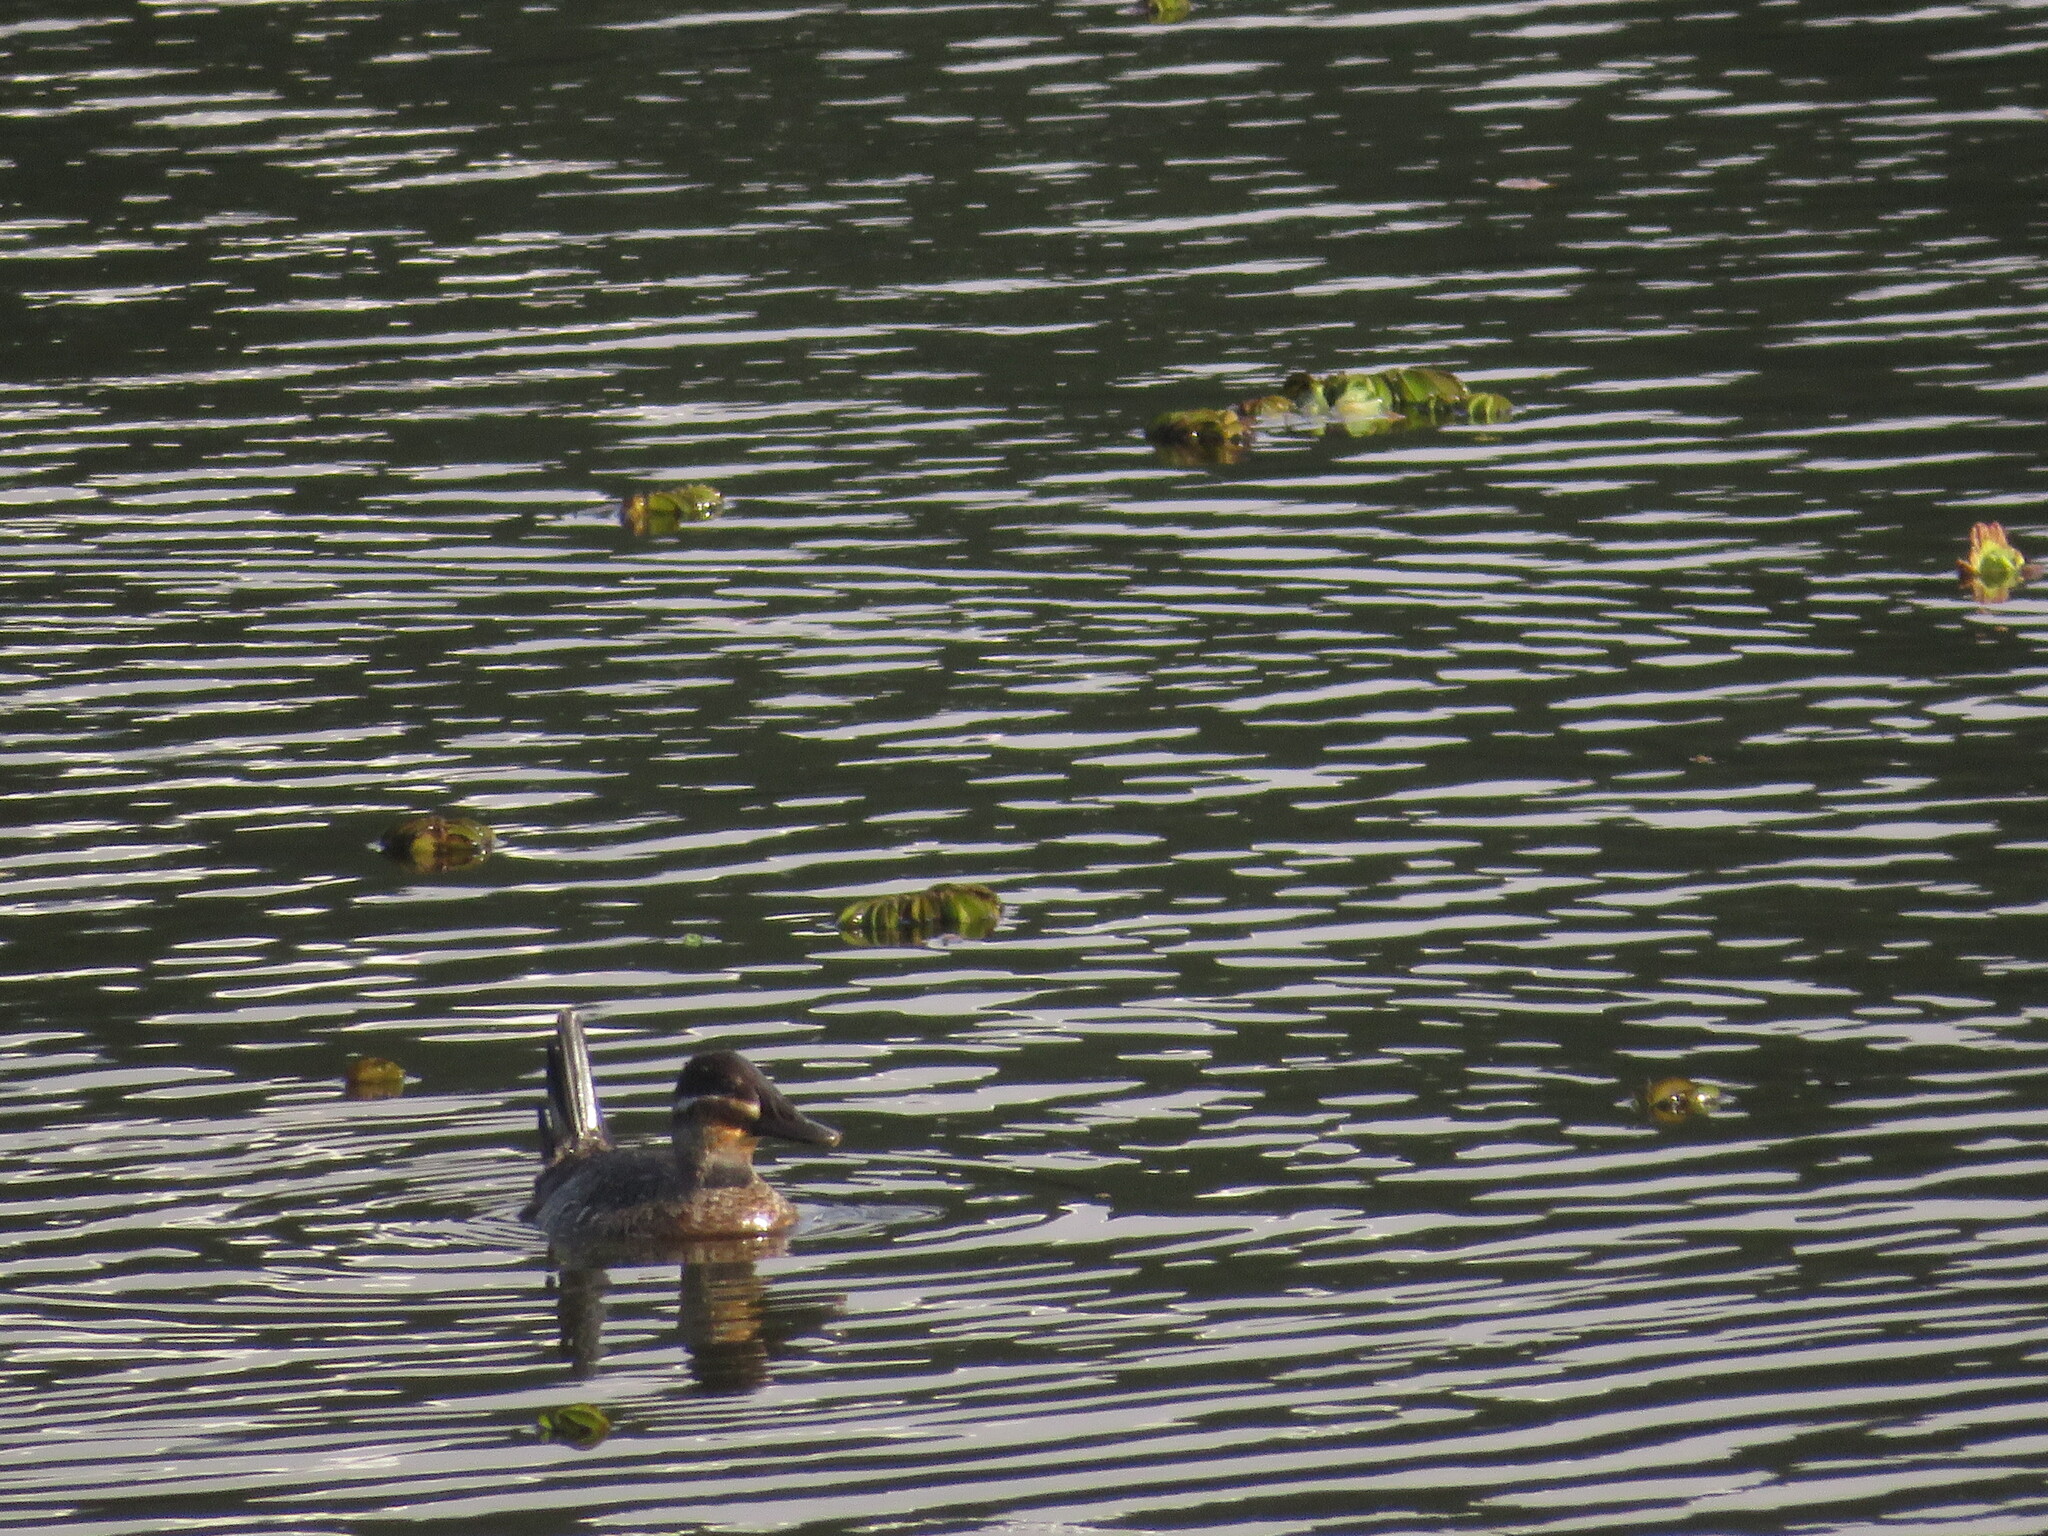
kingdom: Animalia
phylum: Chordata
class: Aves
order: Anseriformes
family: Anatidae
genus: Oxyura
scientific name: Oxyura vittata
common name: Lake duck
